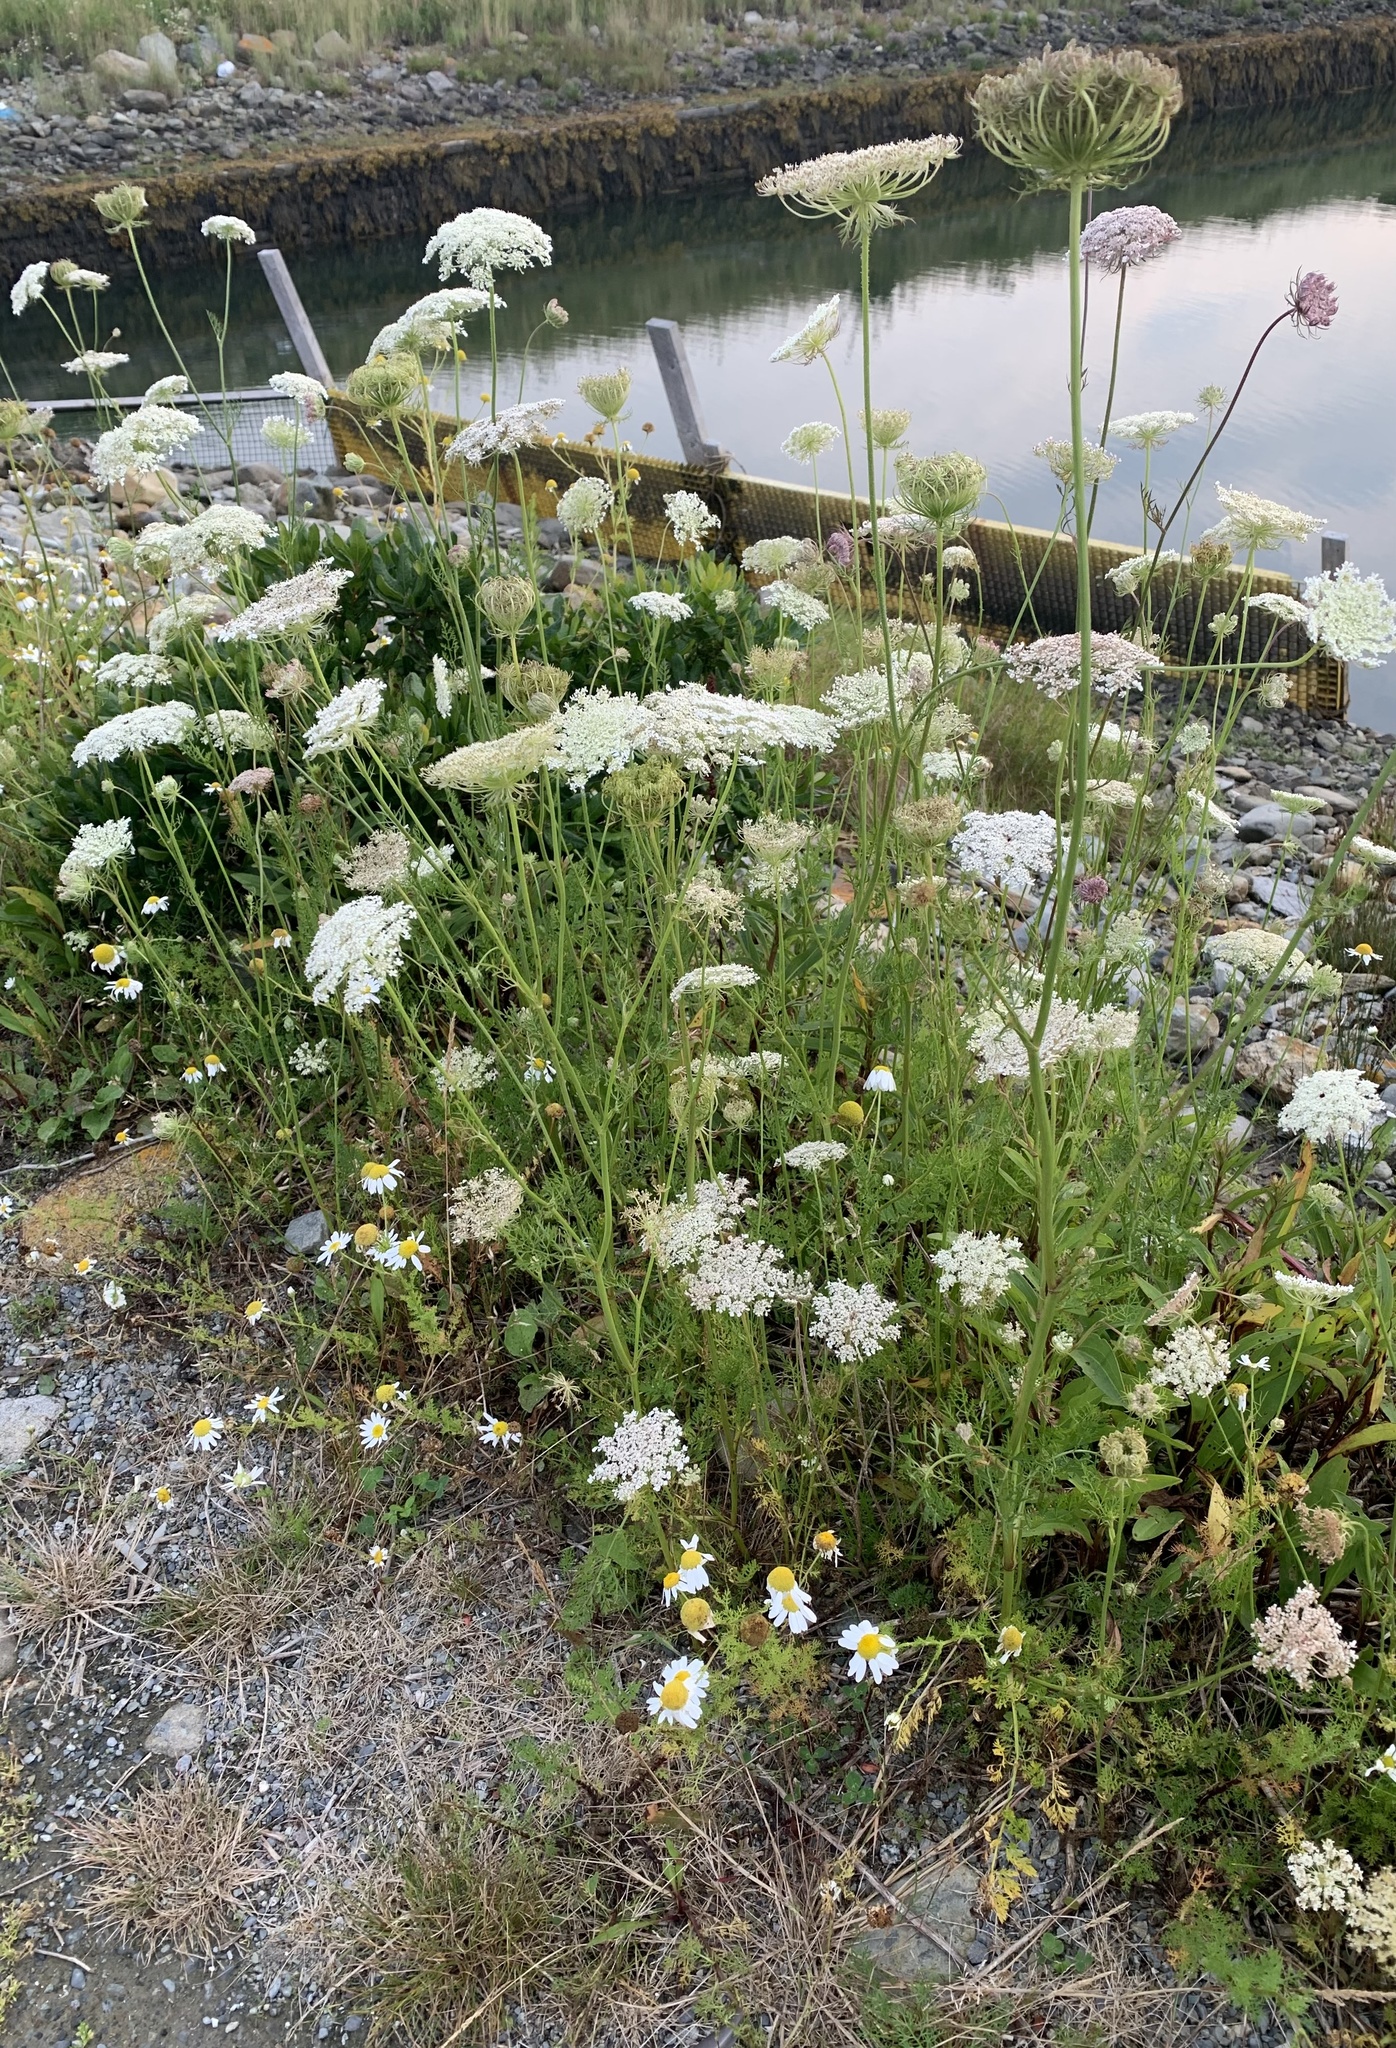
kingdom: Plantae
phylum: Tracheophyta
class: Magnoliopsida
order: Apiales
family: Apiaceae
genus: Daucus
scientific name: Daucus carota
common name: Wild carrot
